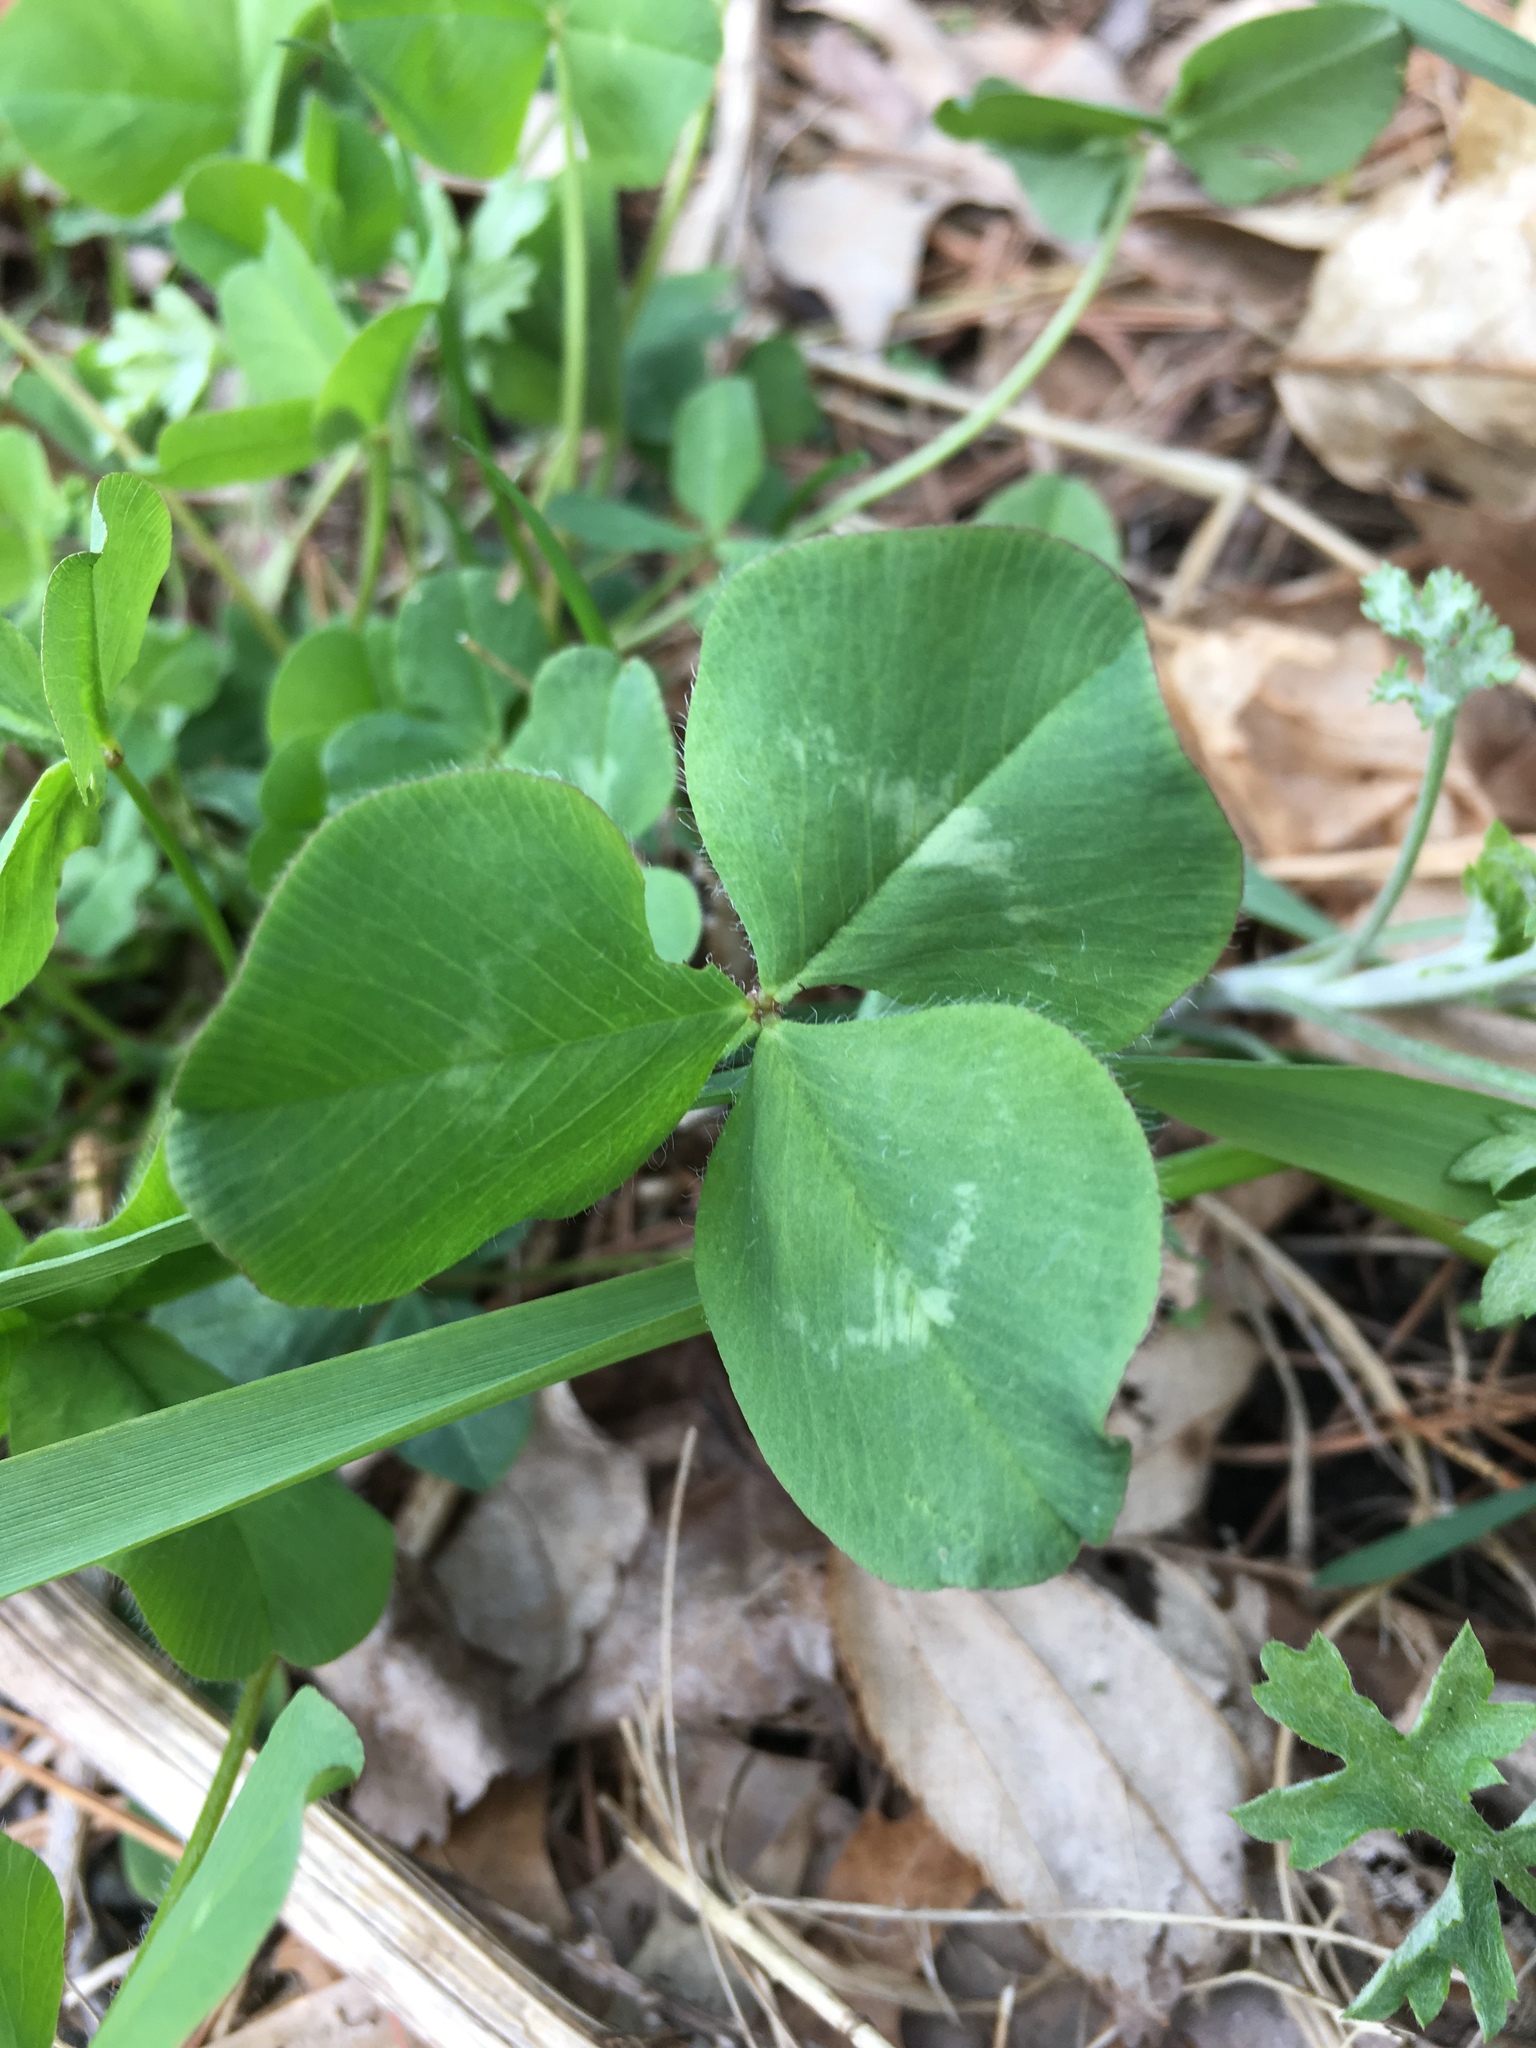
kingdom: Plantae
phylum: Tracheophyta
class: Magnoliopsida
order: Fabales
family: Fabaceae
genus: Trifolium
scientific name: Trifolium pratense
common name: Red clover
